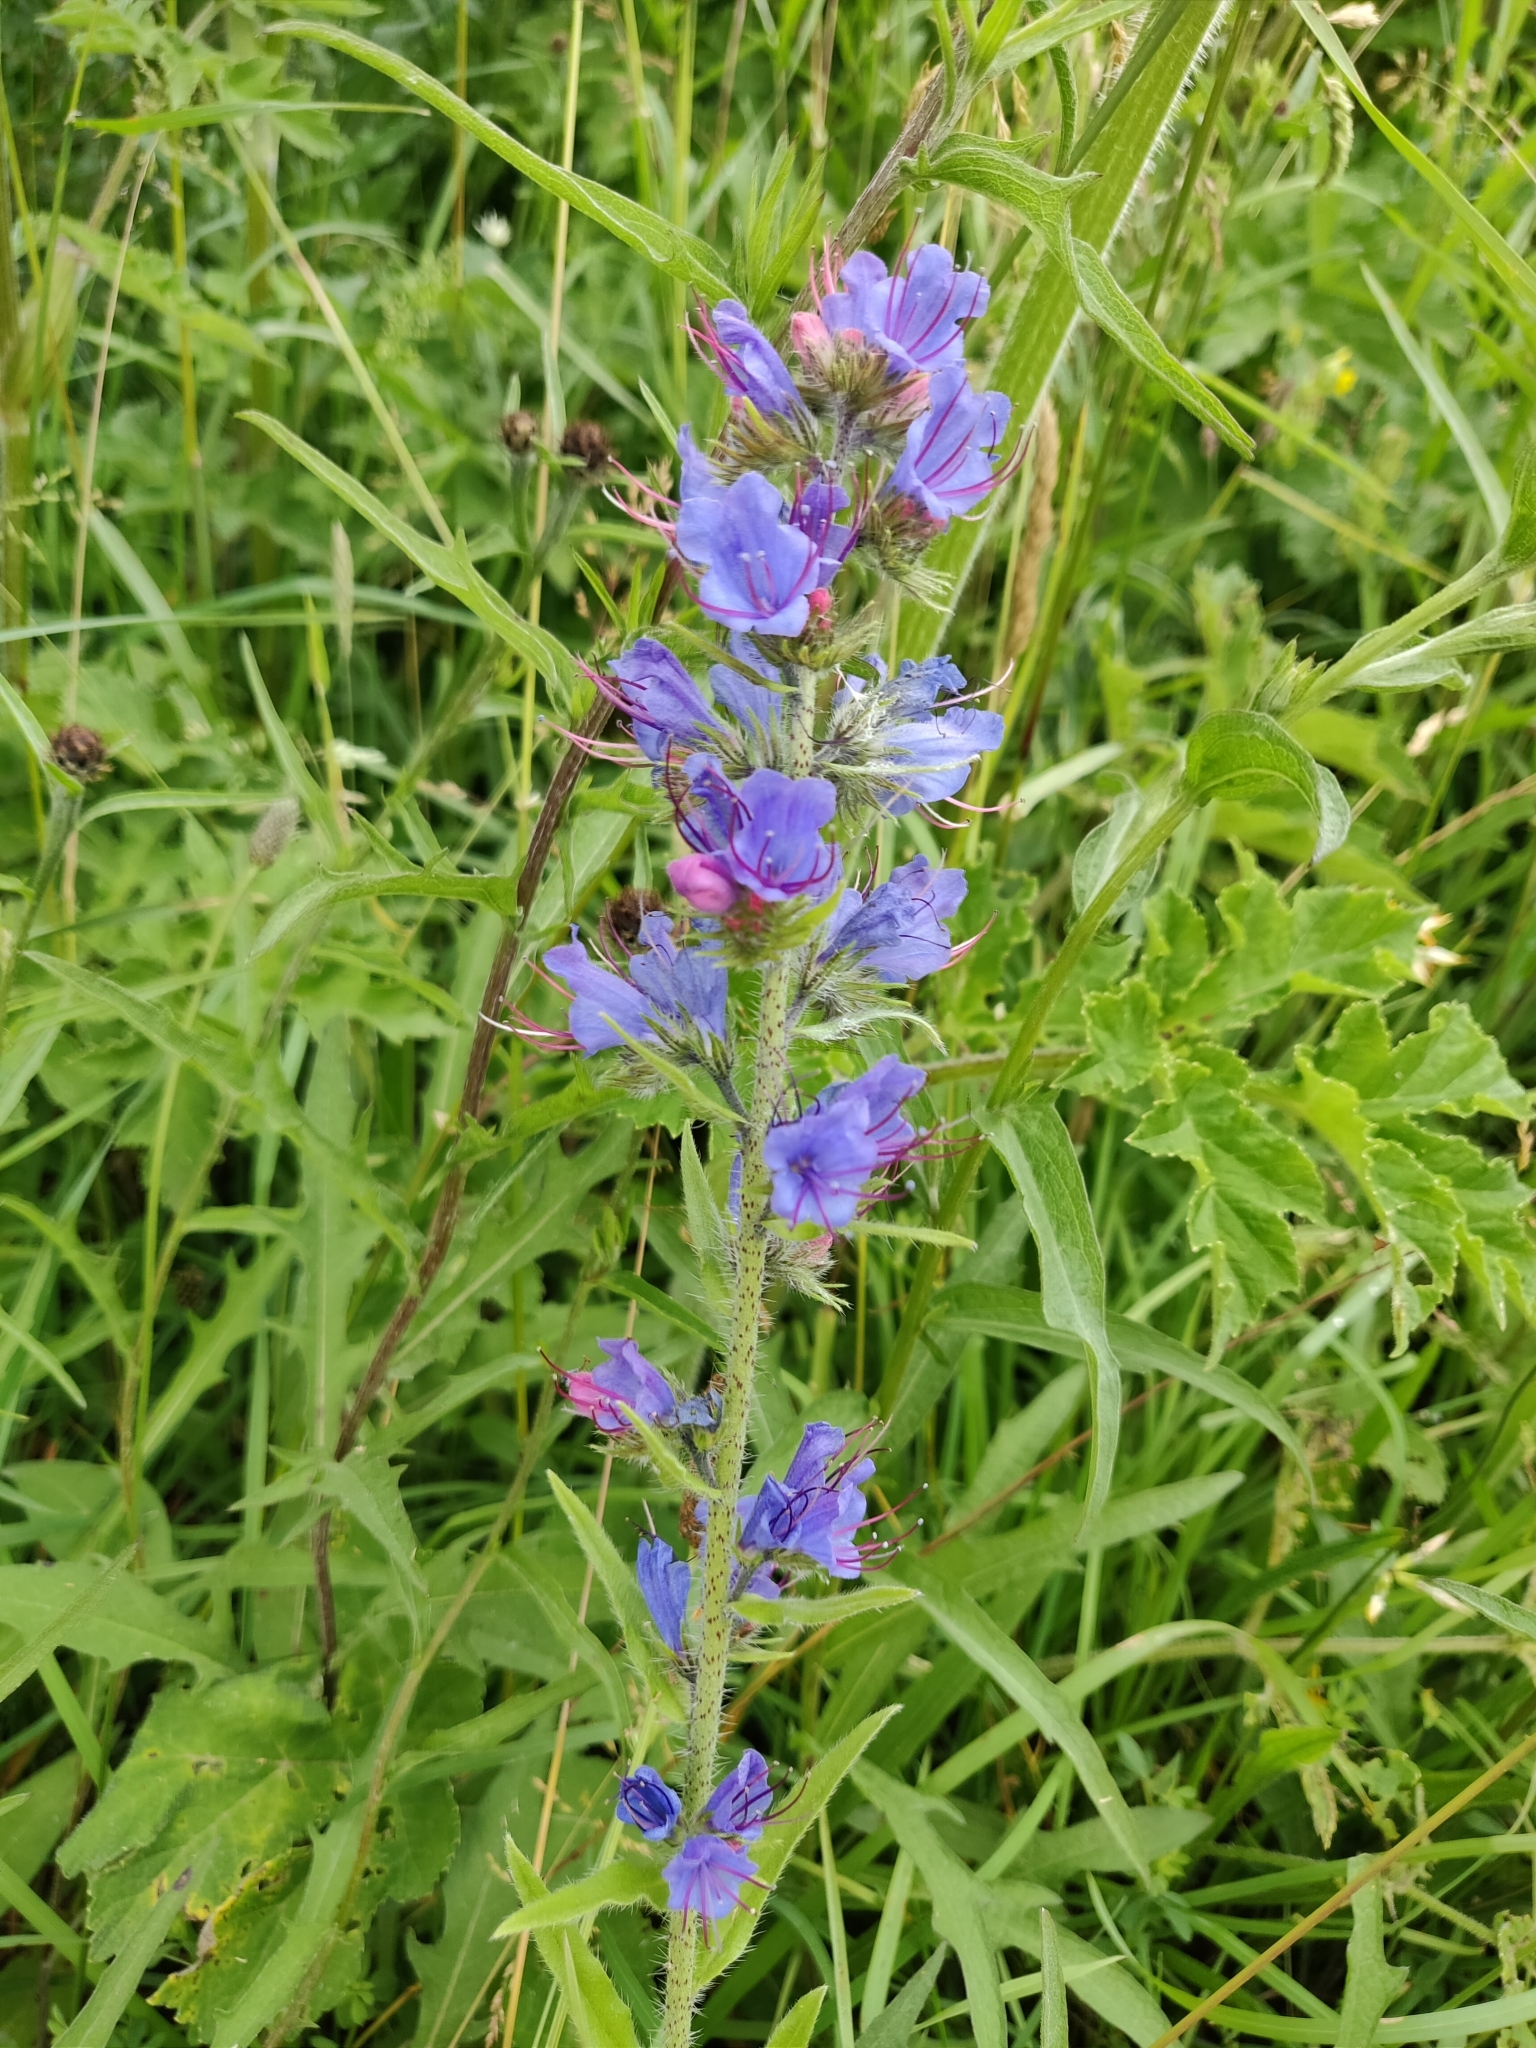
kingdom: Plantae
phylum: Tracheophyta
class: Magnoliopsida
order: Boraginales
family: Boraginaceae
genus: Echium
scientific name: Echium vulgare
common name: Common viper's bugloss
